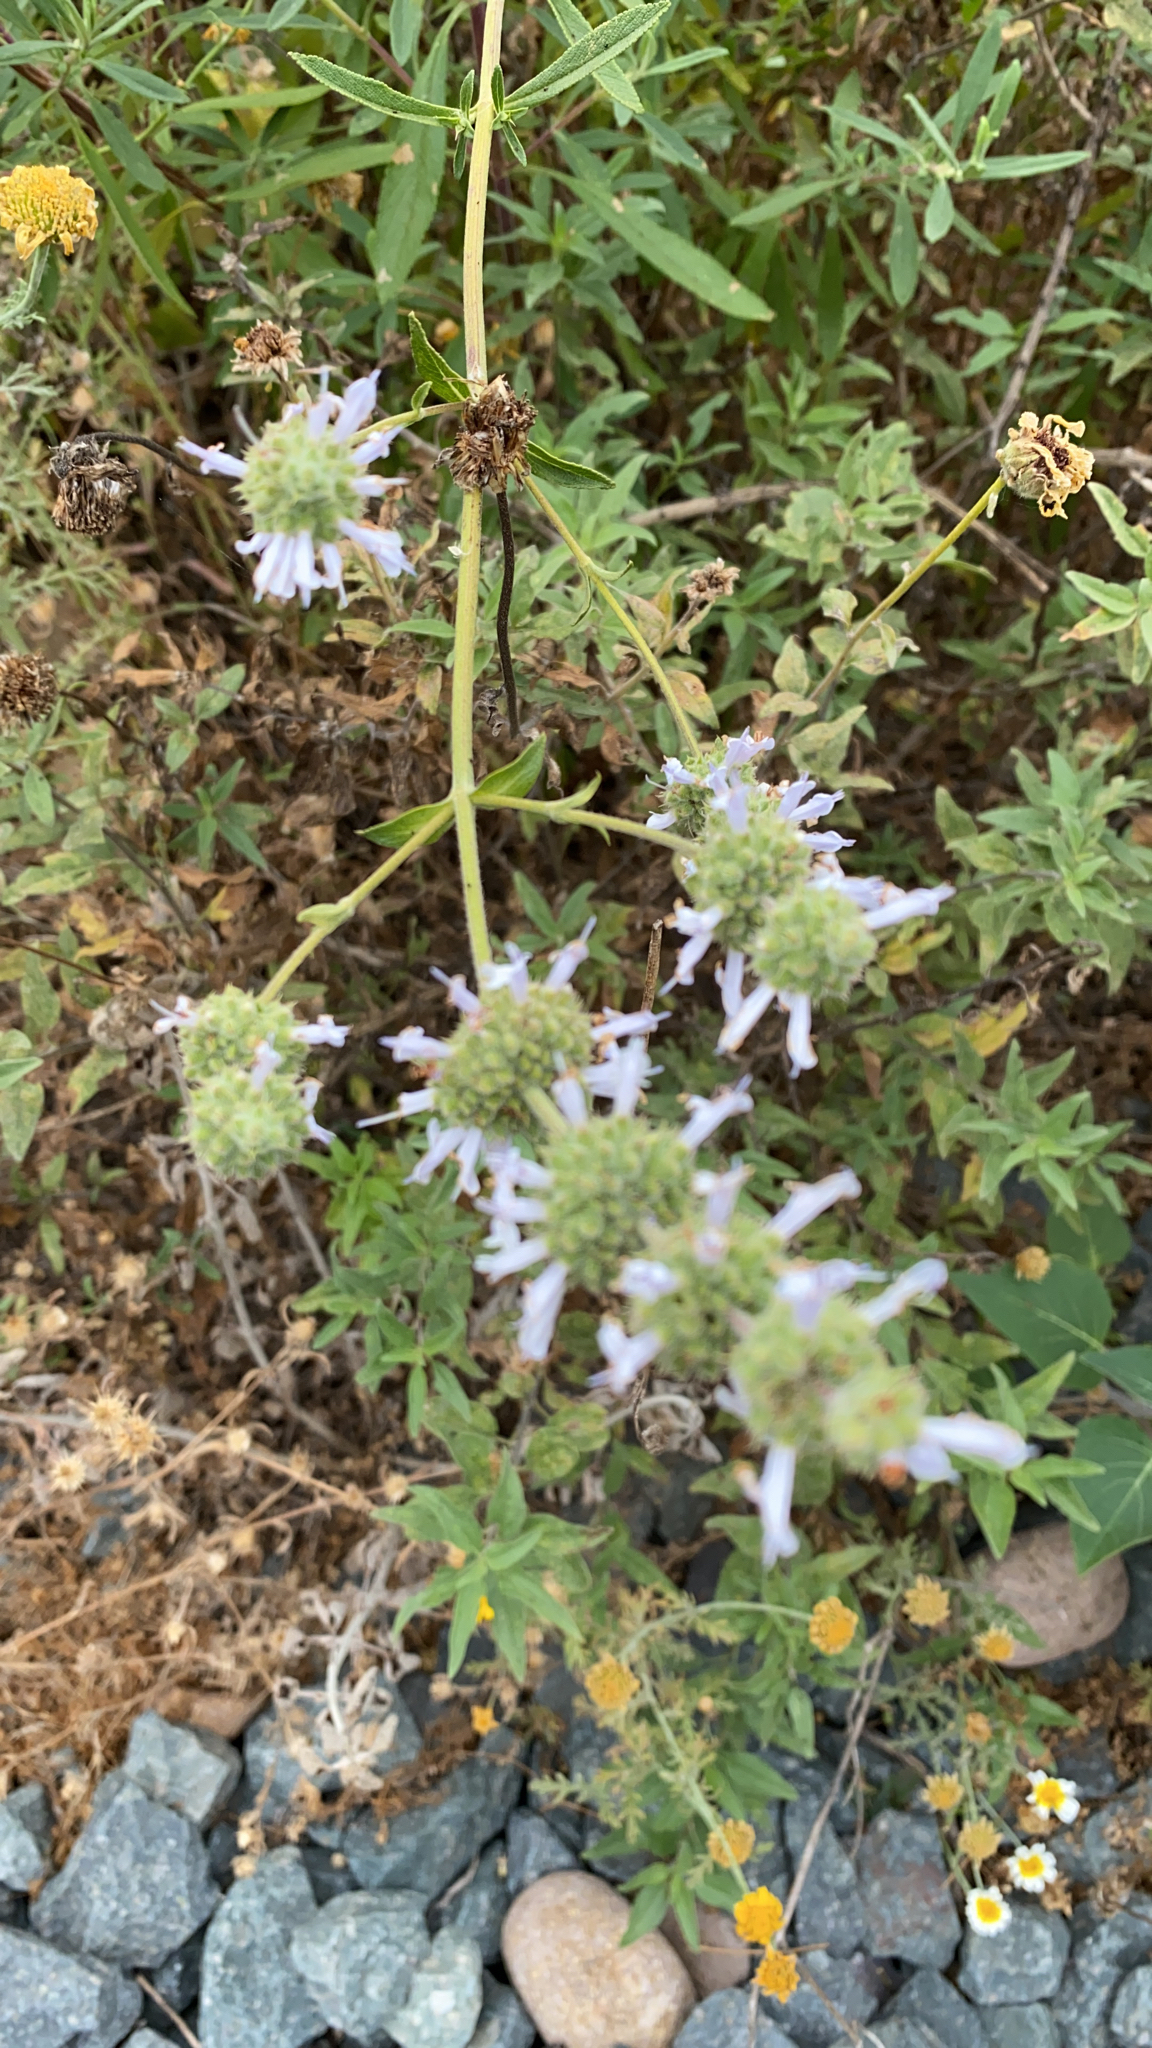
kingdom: Plantae
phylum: Tracheophyta
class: Magnoliopsida
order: Lamiales
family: Lamiaceae
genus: Salvia
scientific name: Salvia mellifera
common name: Black sage
